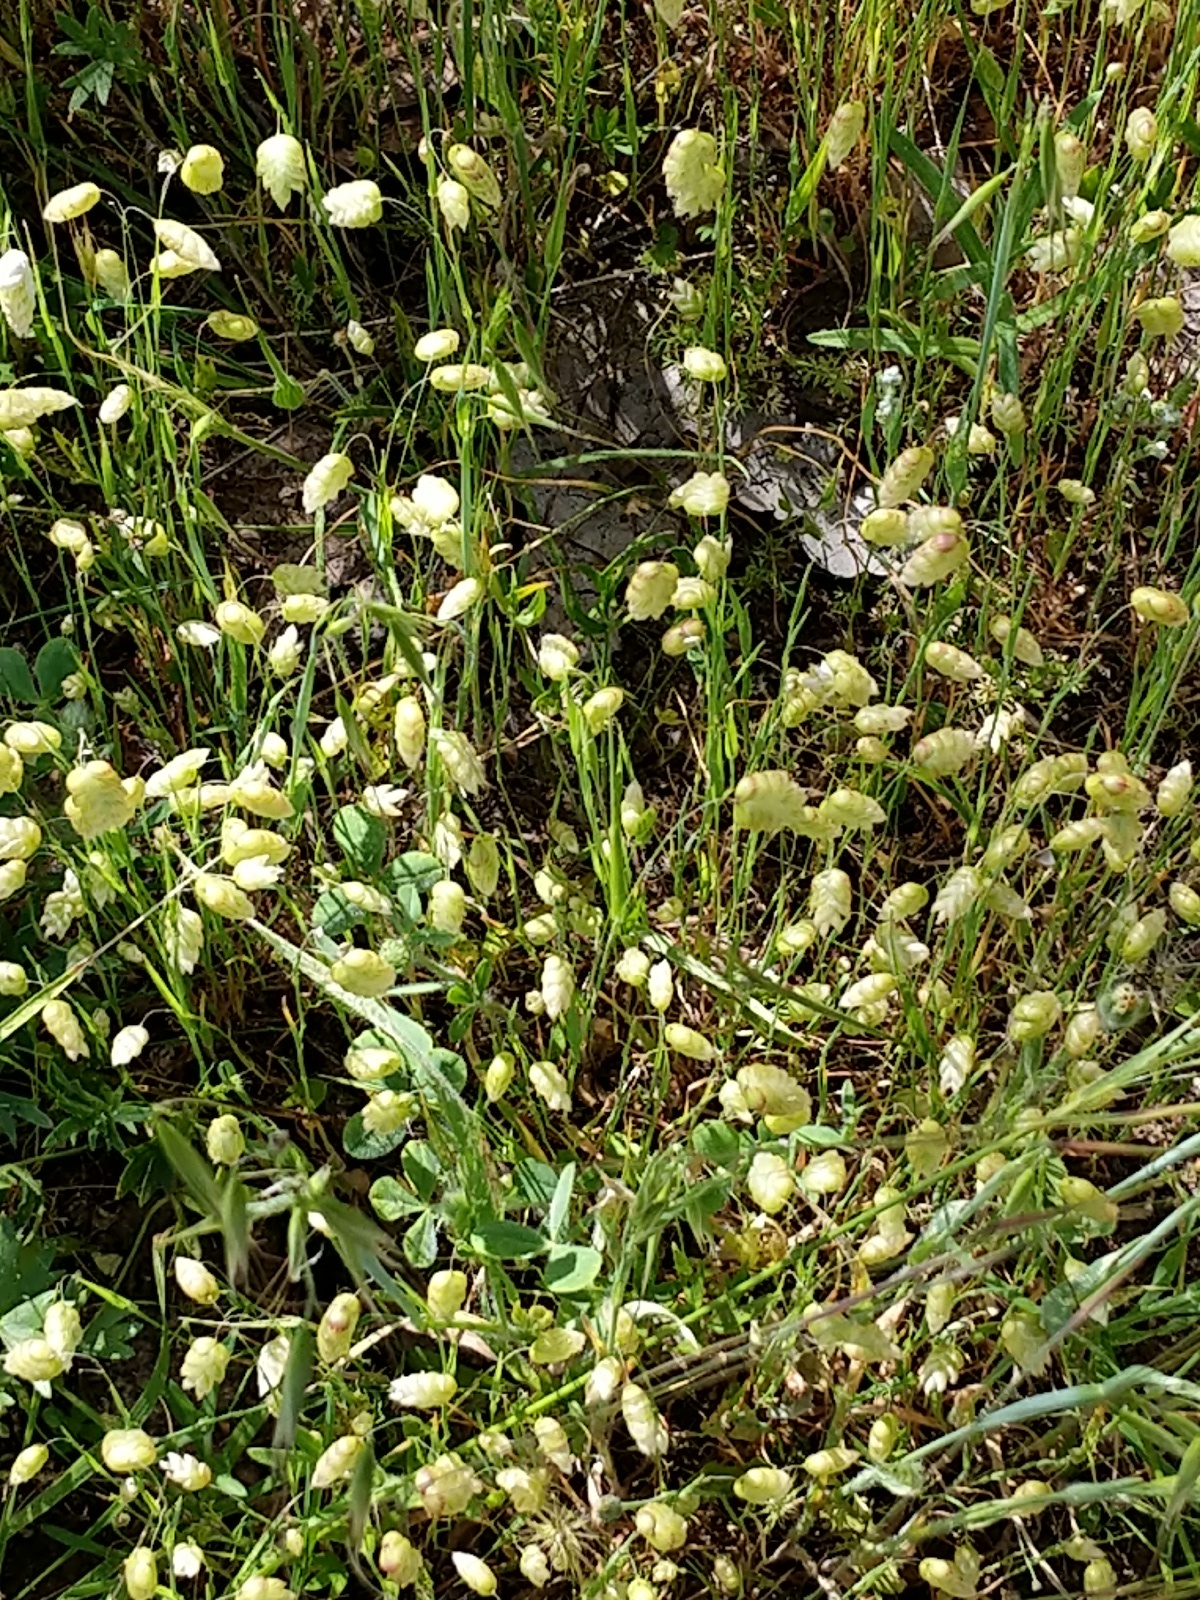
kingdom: Plantae
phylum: Tracheophyta
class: Liliopsida
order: Poales
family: Poaceae
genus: Briza
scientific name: Briza maxima
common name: Big quakinggrass
